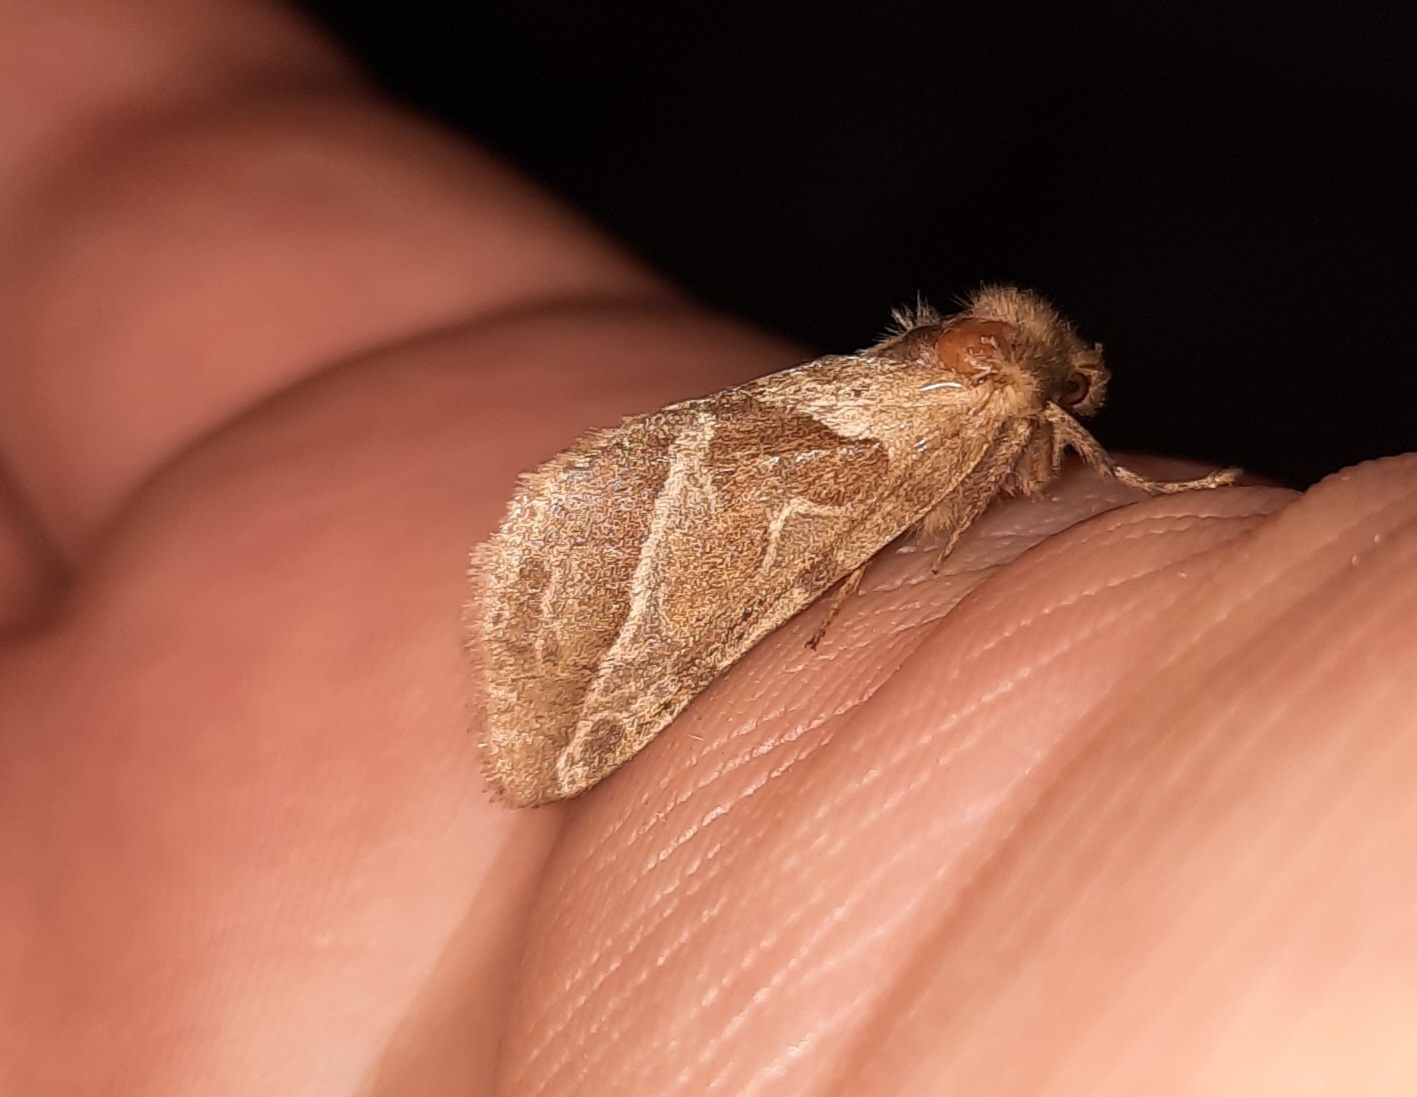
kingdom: Animalia
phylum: Arthropoda
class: Insecta
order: Lepidoptera
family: Hepialidae
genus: Triodia
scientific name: Triodia sylvina
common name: Orange swift
